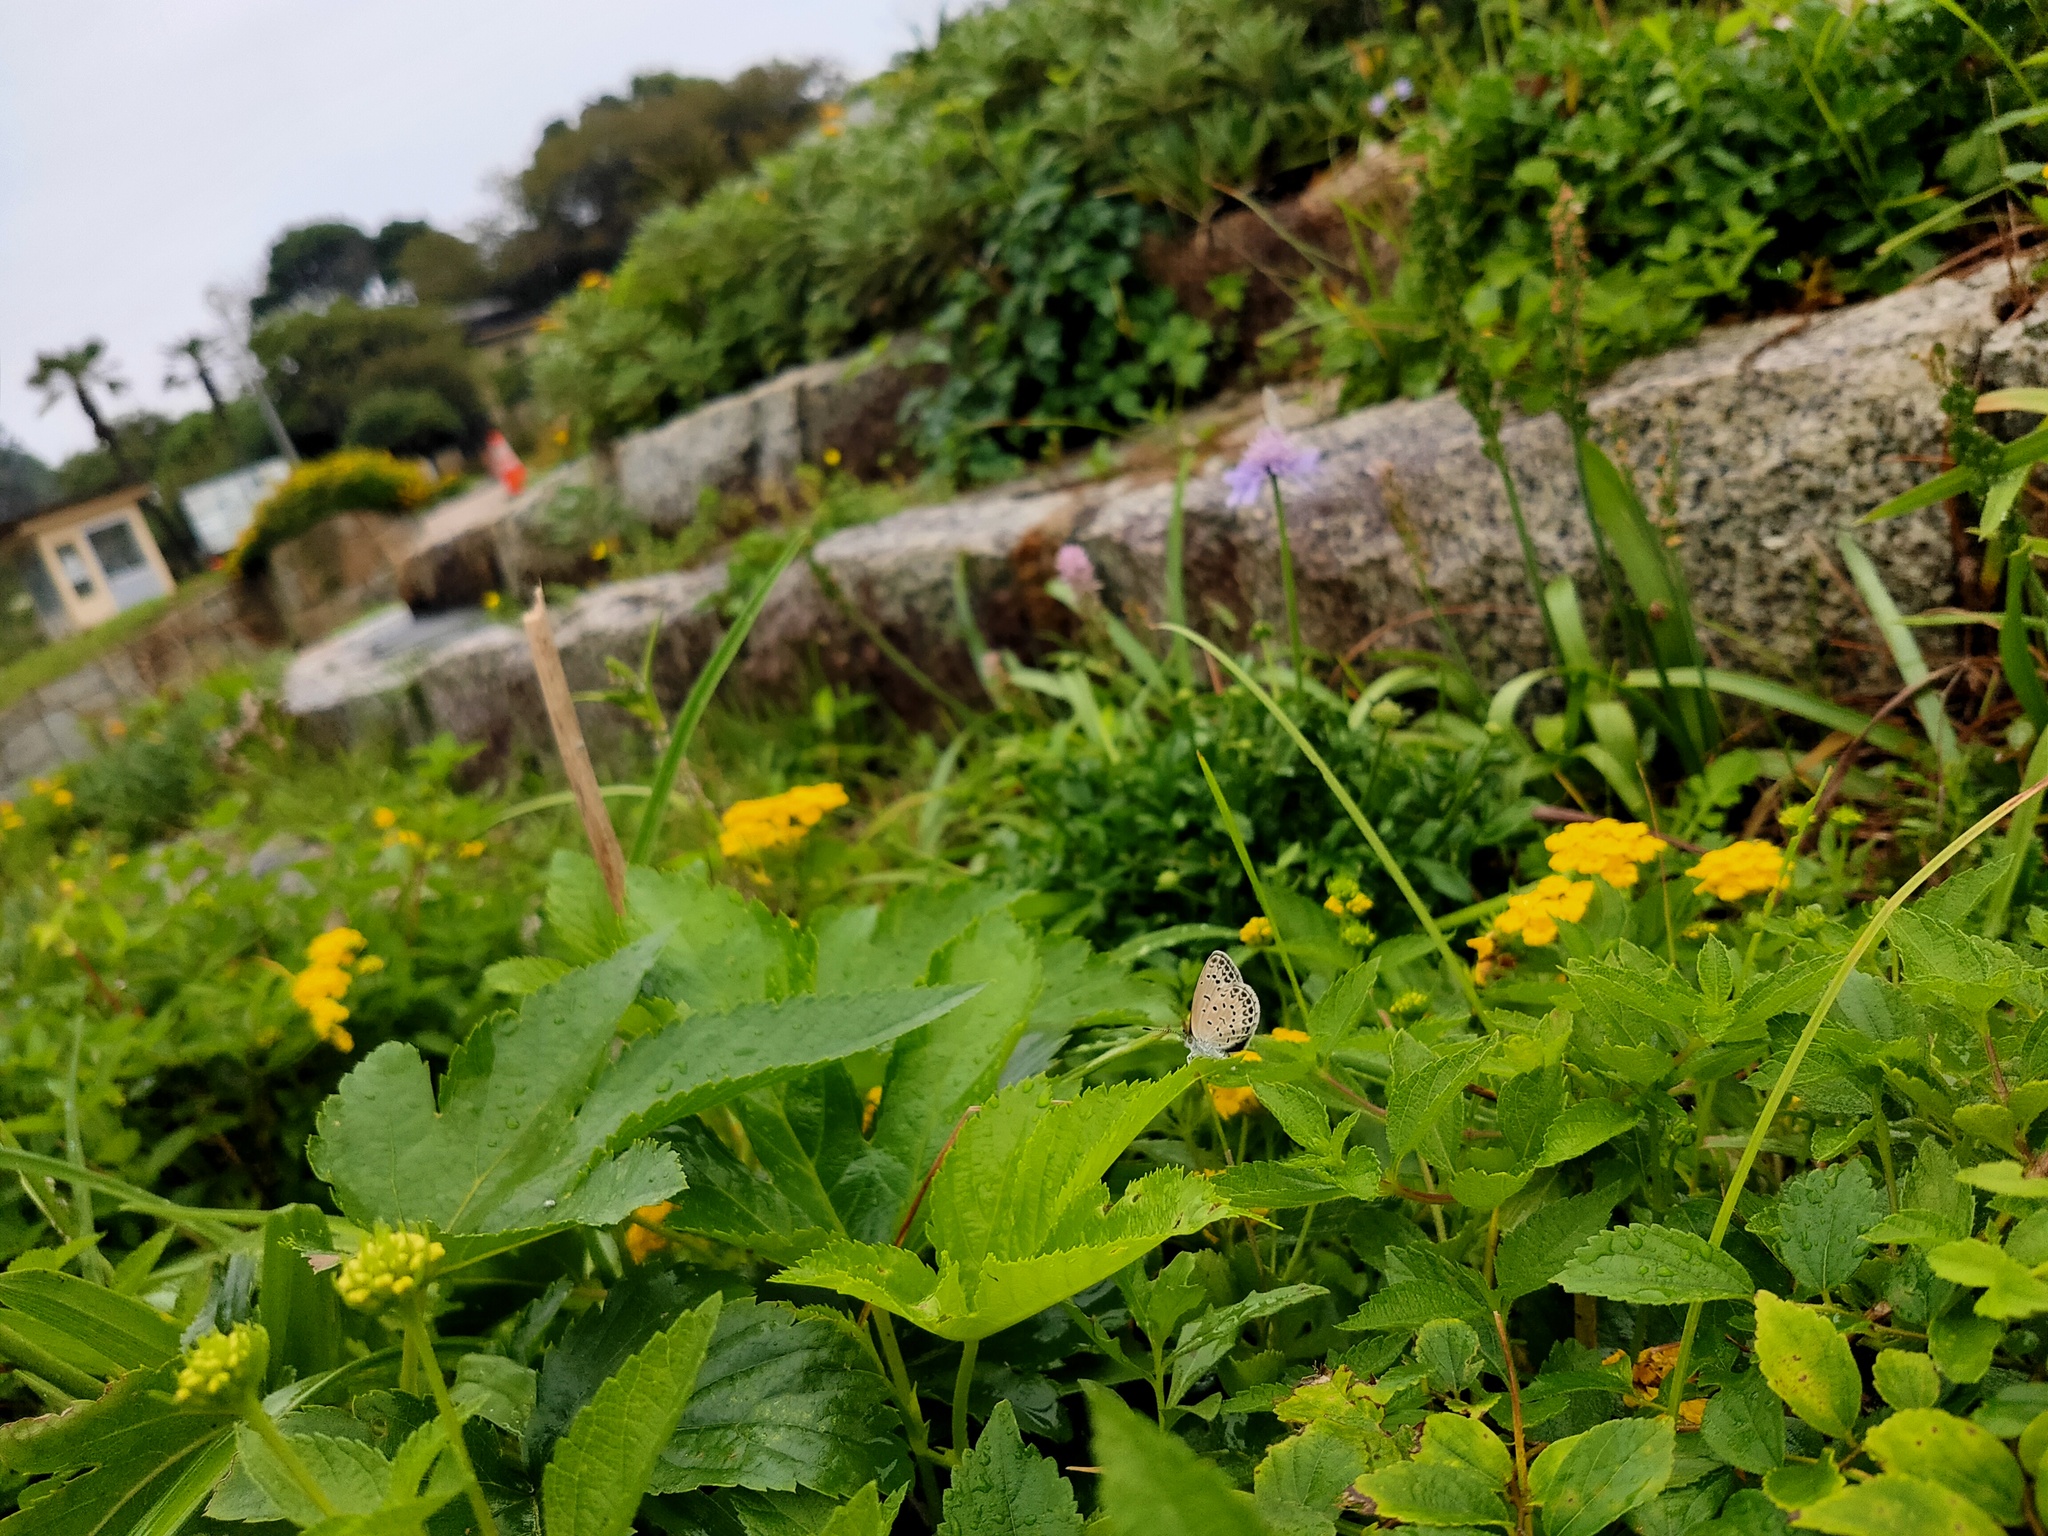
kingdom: Animalia
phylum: Arthropoda
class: Insecta
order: Lepidoptera
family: Lycaenidae
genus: Pseudozizeeria
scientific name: Pseudozizeeria maha
